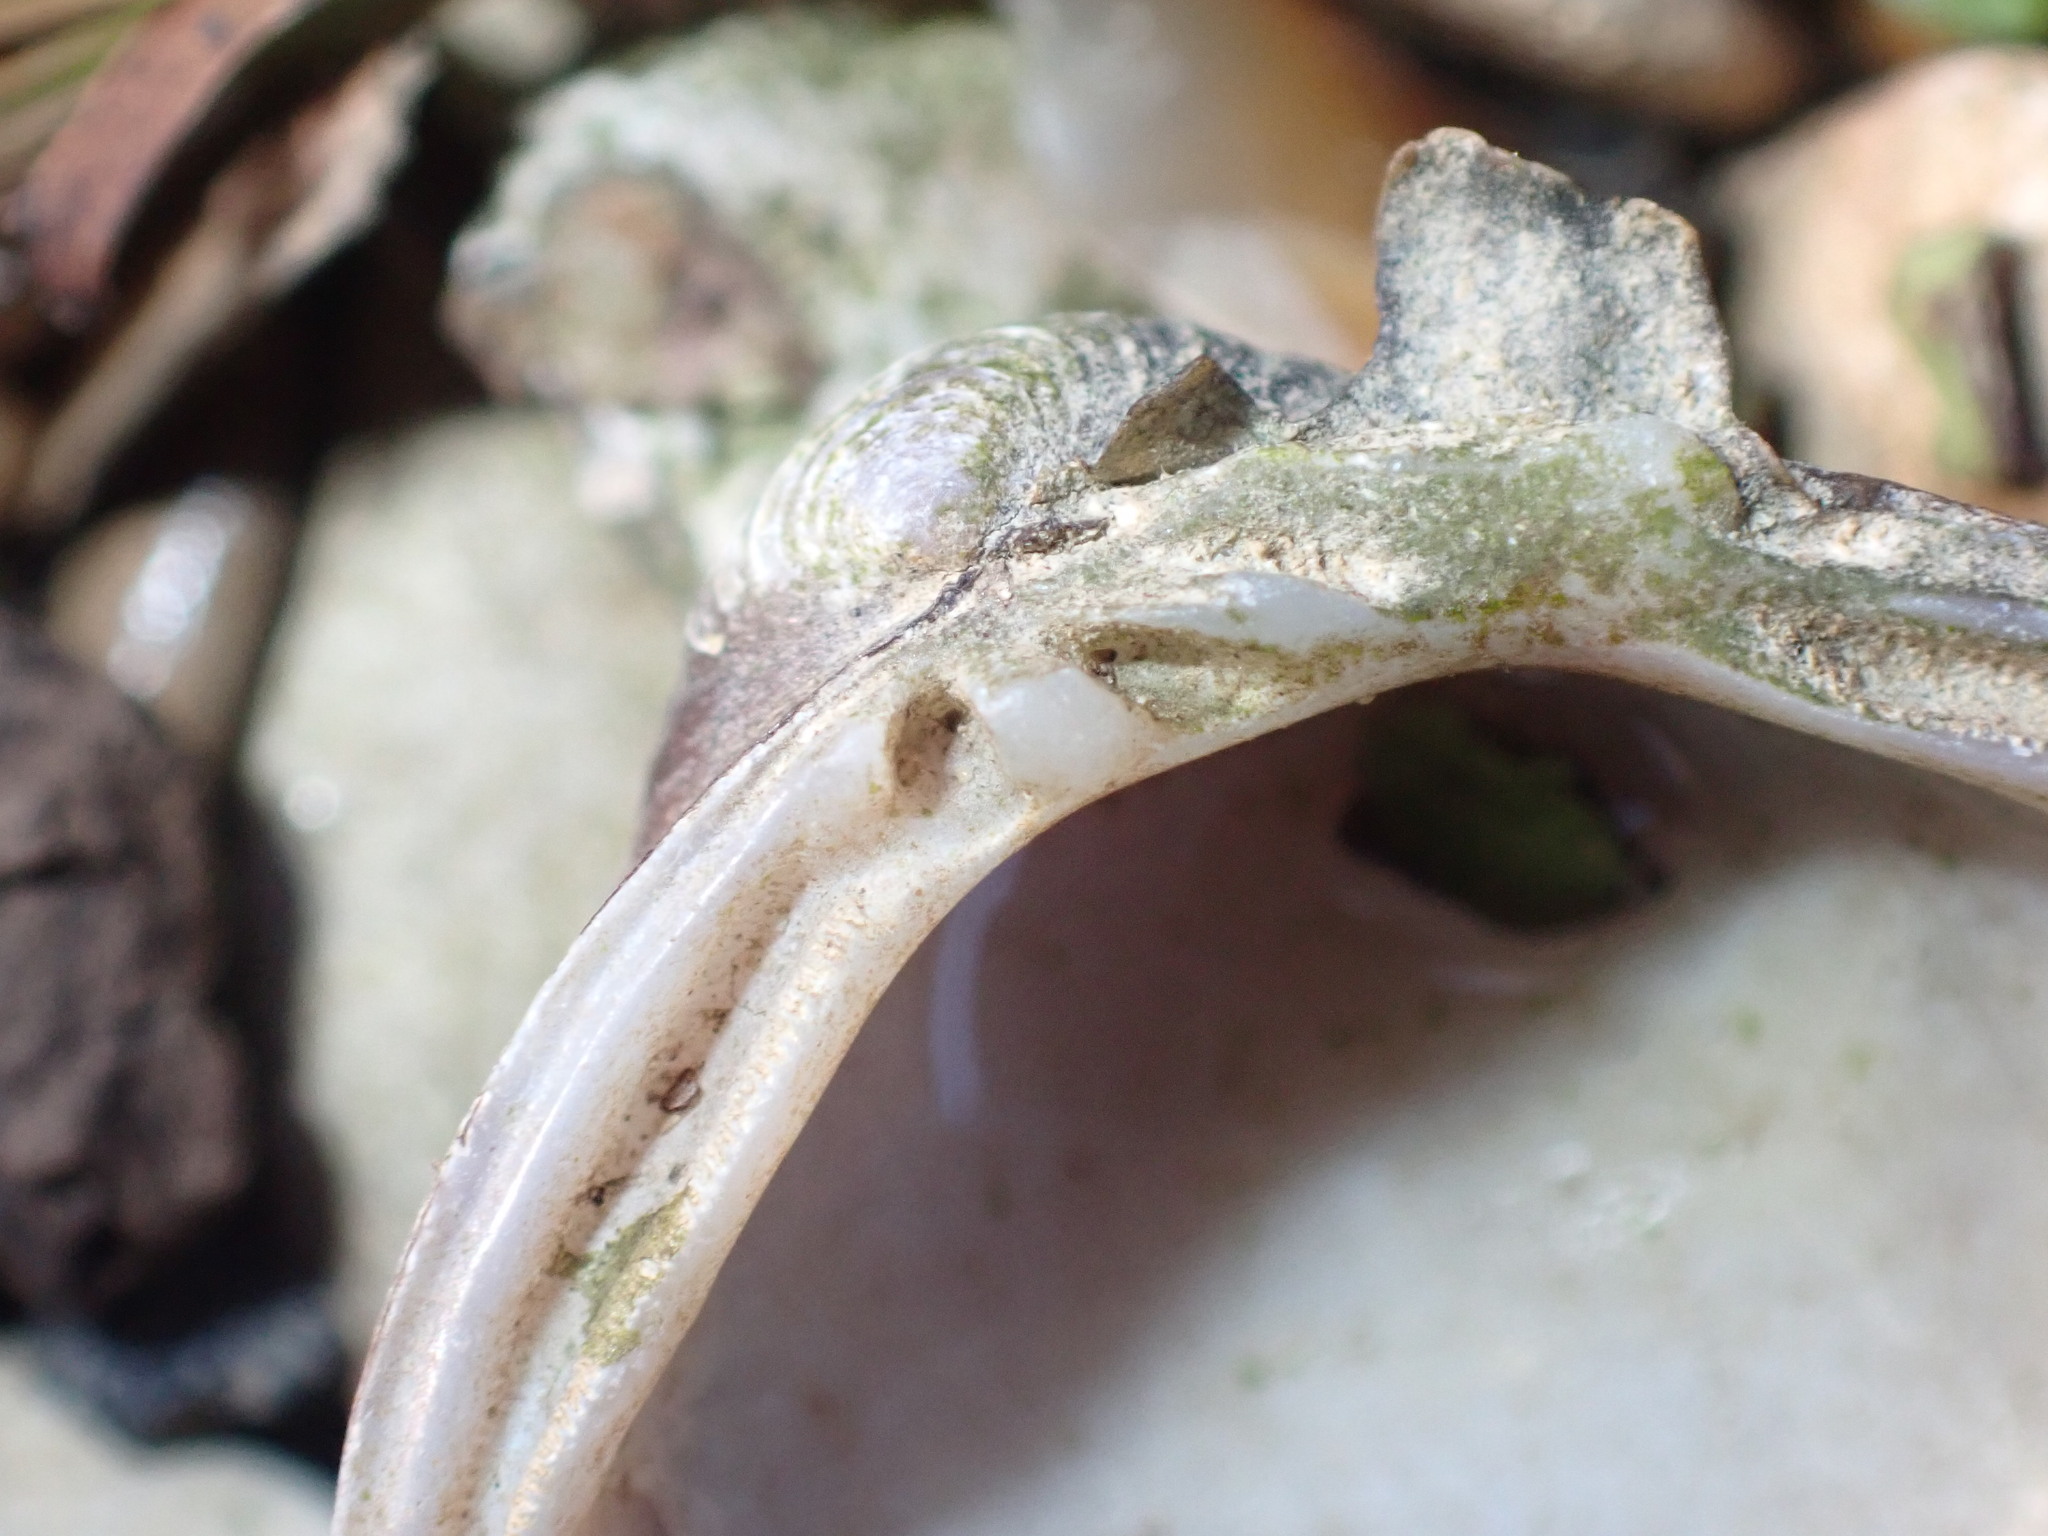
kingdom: Animalia
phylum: Mollusca
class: Bivalvia
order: Venerida
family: Cyrenidae
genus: Corbicula
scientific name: Corbicula fluminea
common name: Asian clam
